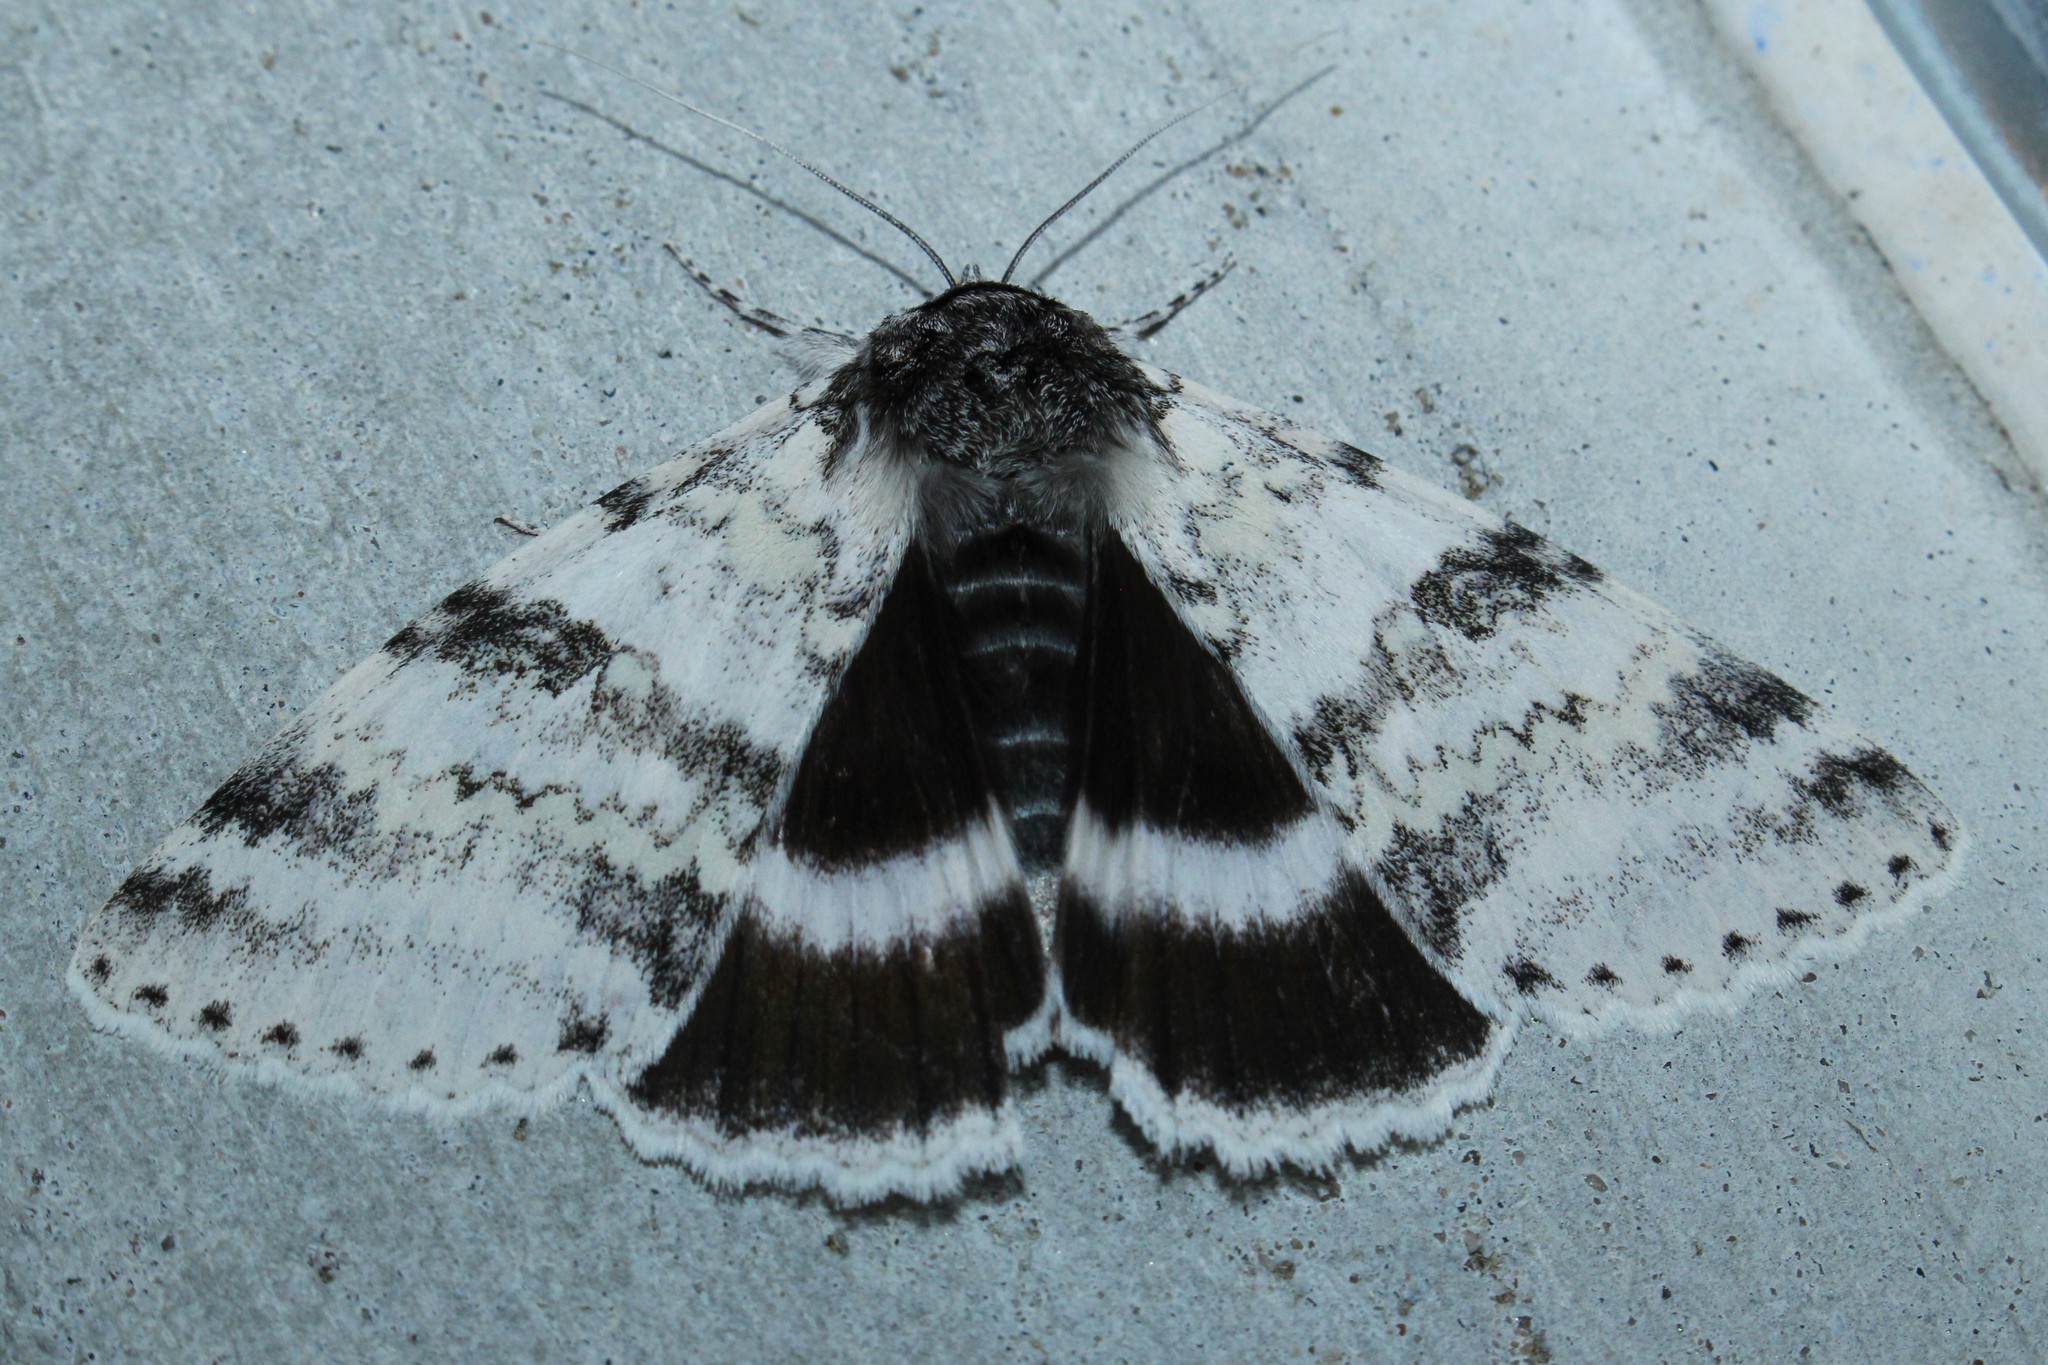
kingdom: Animalia
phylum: Arthropoda
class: Insecta
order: Lepidoptera
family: Erebidae
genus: Catocala
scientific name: Catocala relicta
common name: White underwing
